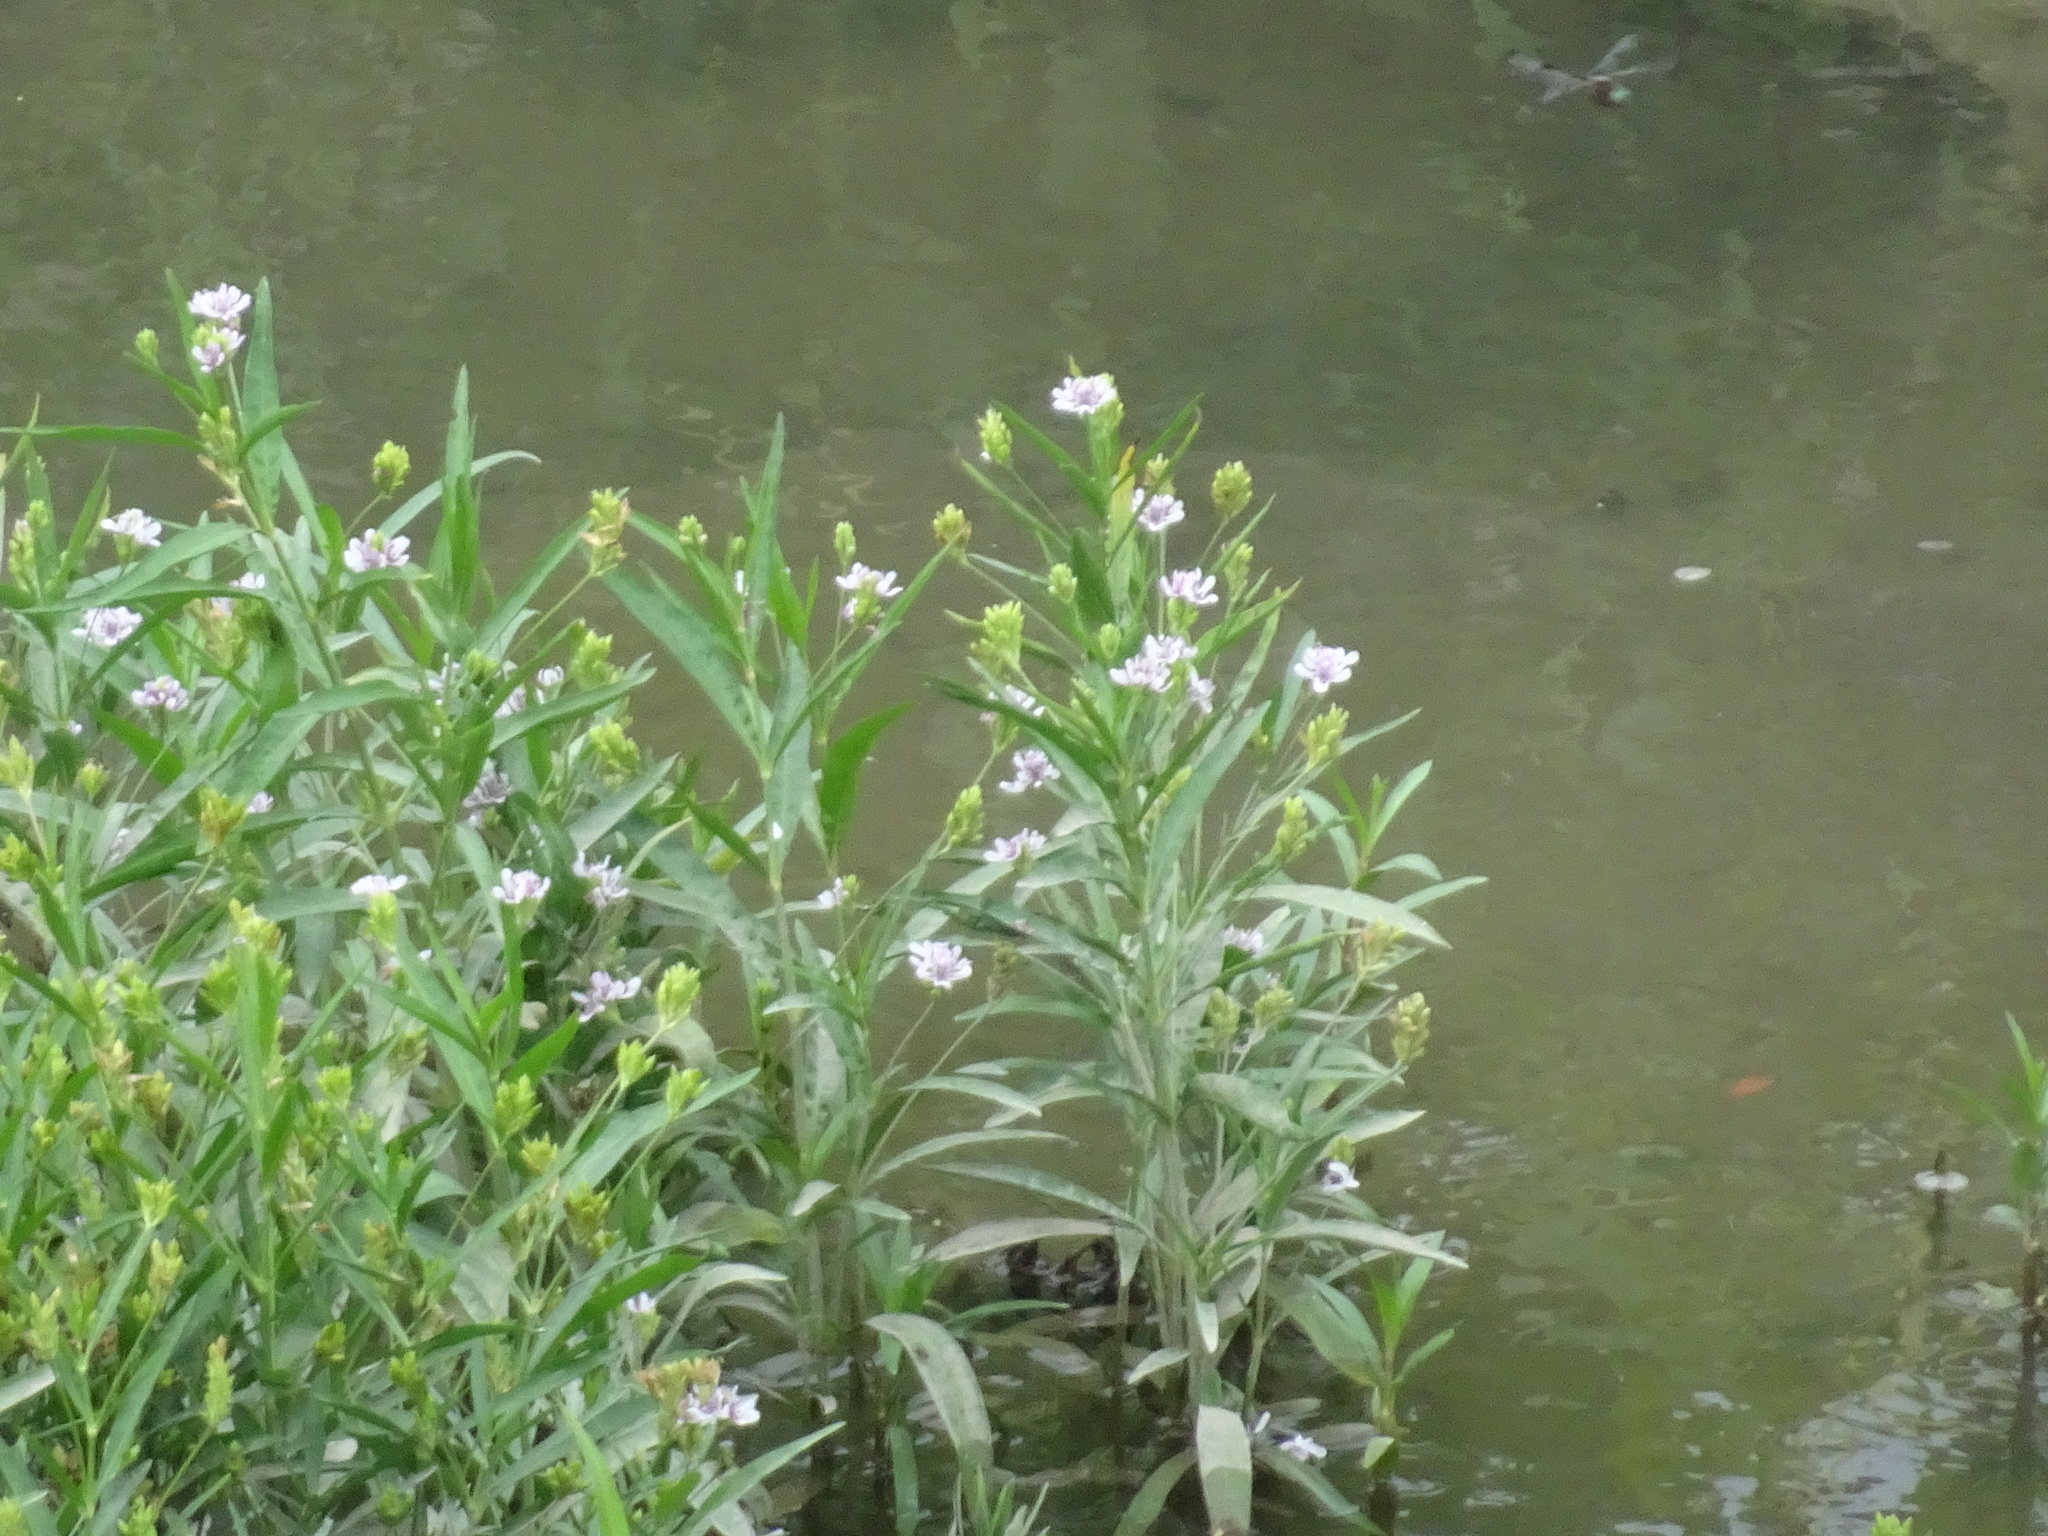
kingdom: Plantae
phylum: Tracheophyta
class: Magnoliopsida
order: Lamiales
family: Acanthaceae
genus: Dianthera
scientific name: Dianthera americana
